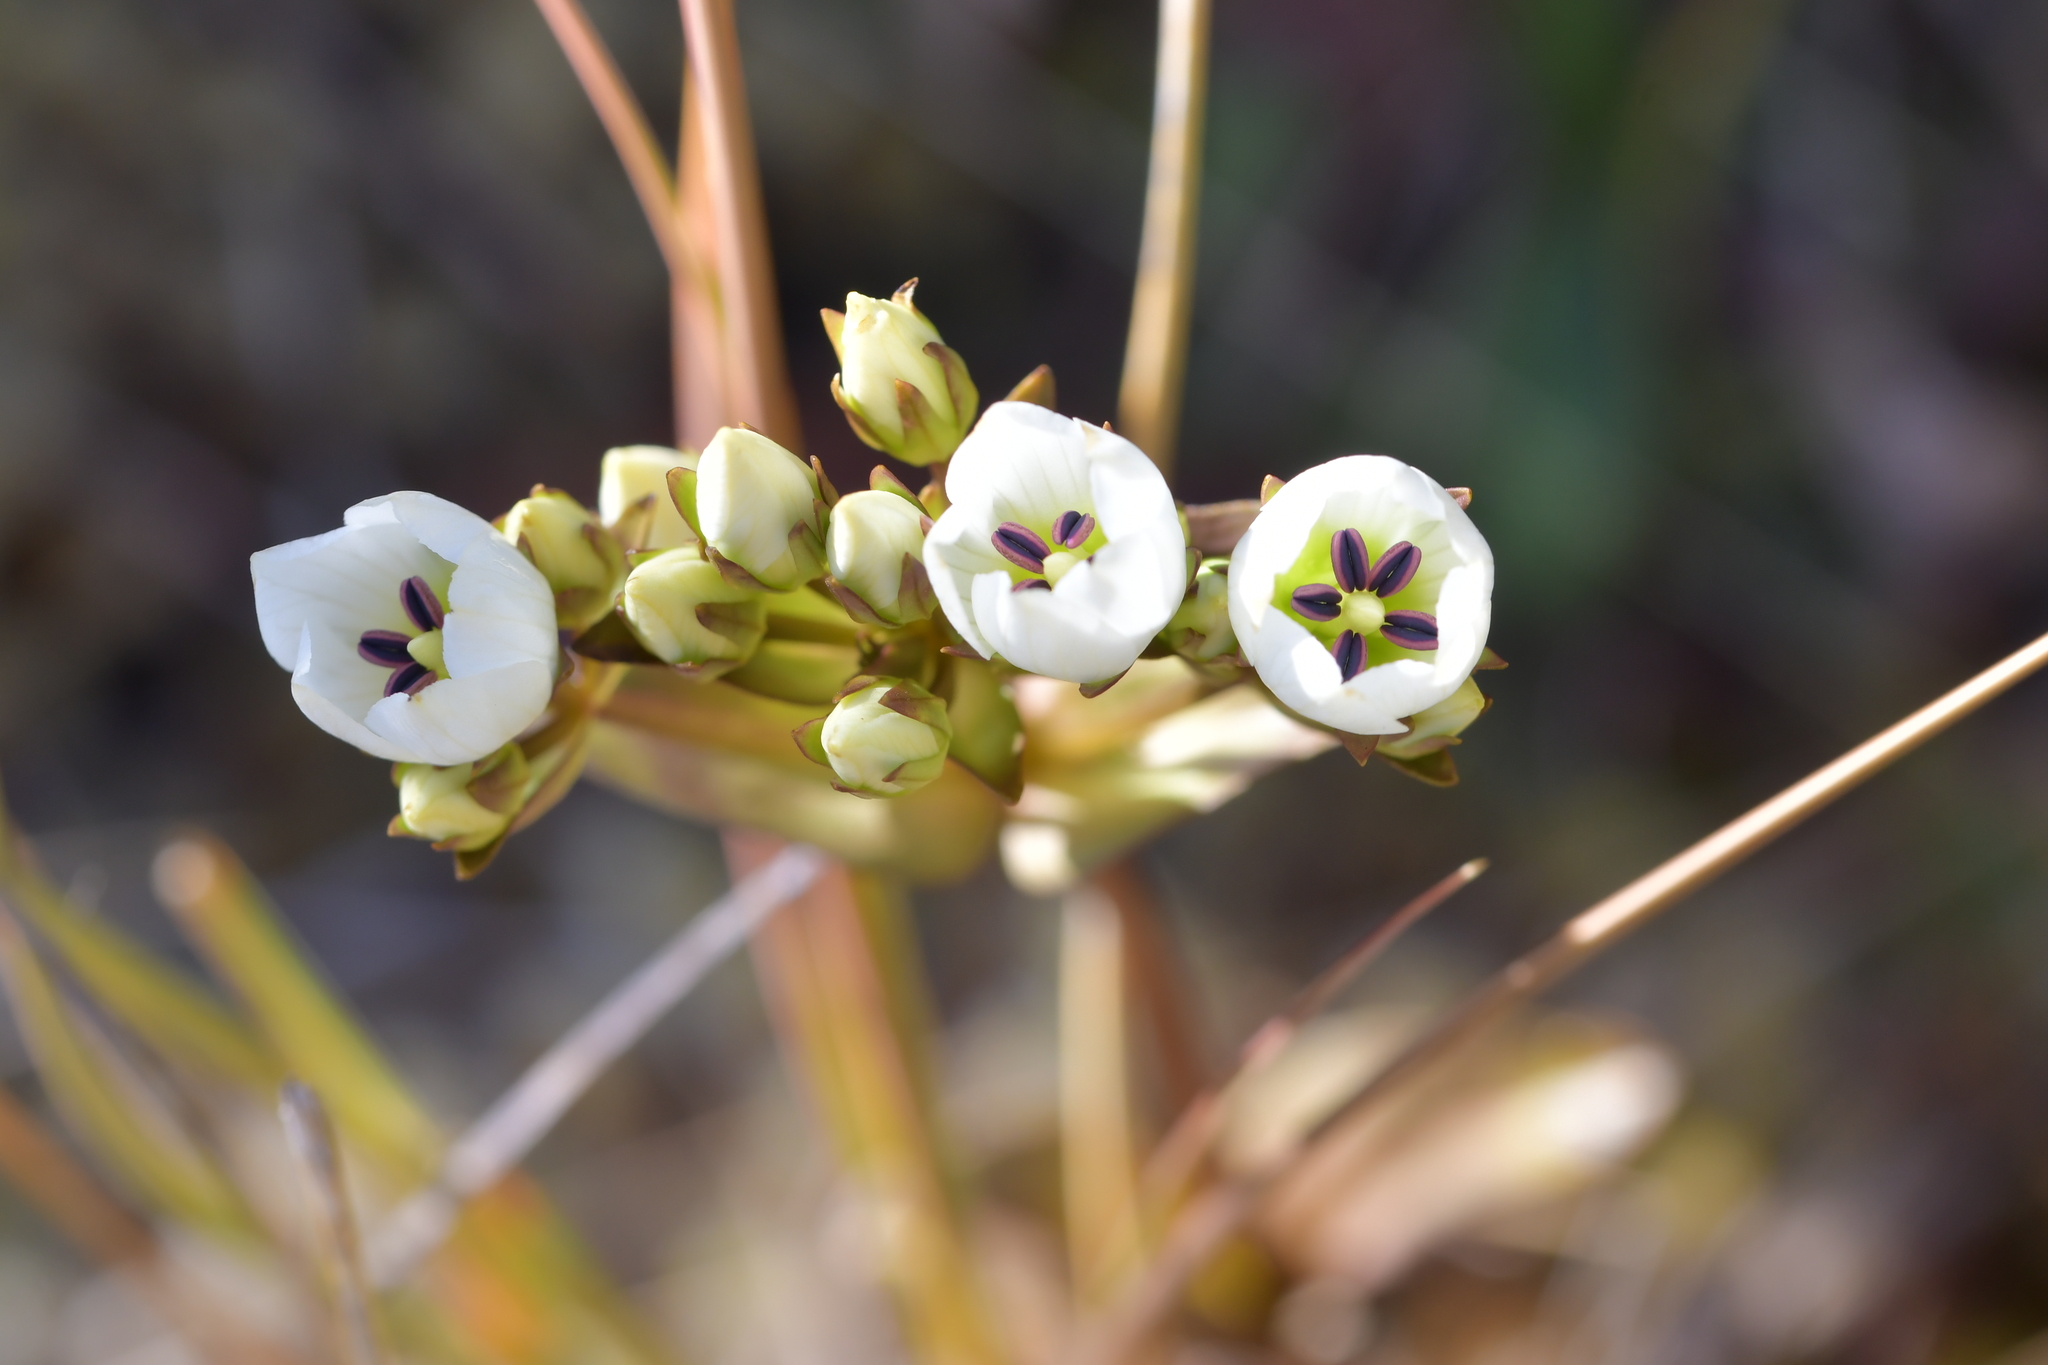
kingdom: Plantae
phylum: Tracheophyta
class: Magnoliopsida
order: Gentianales
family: Gentianaceae
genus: Gentianella
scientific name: Gentianella montana
